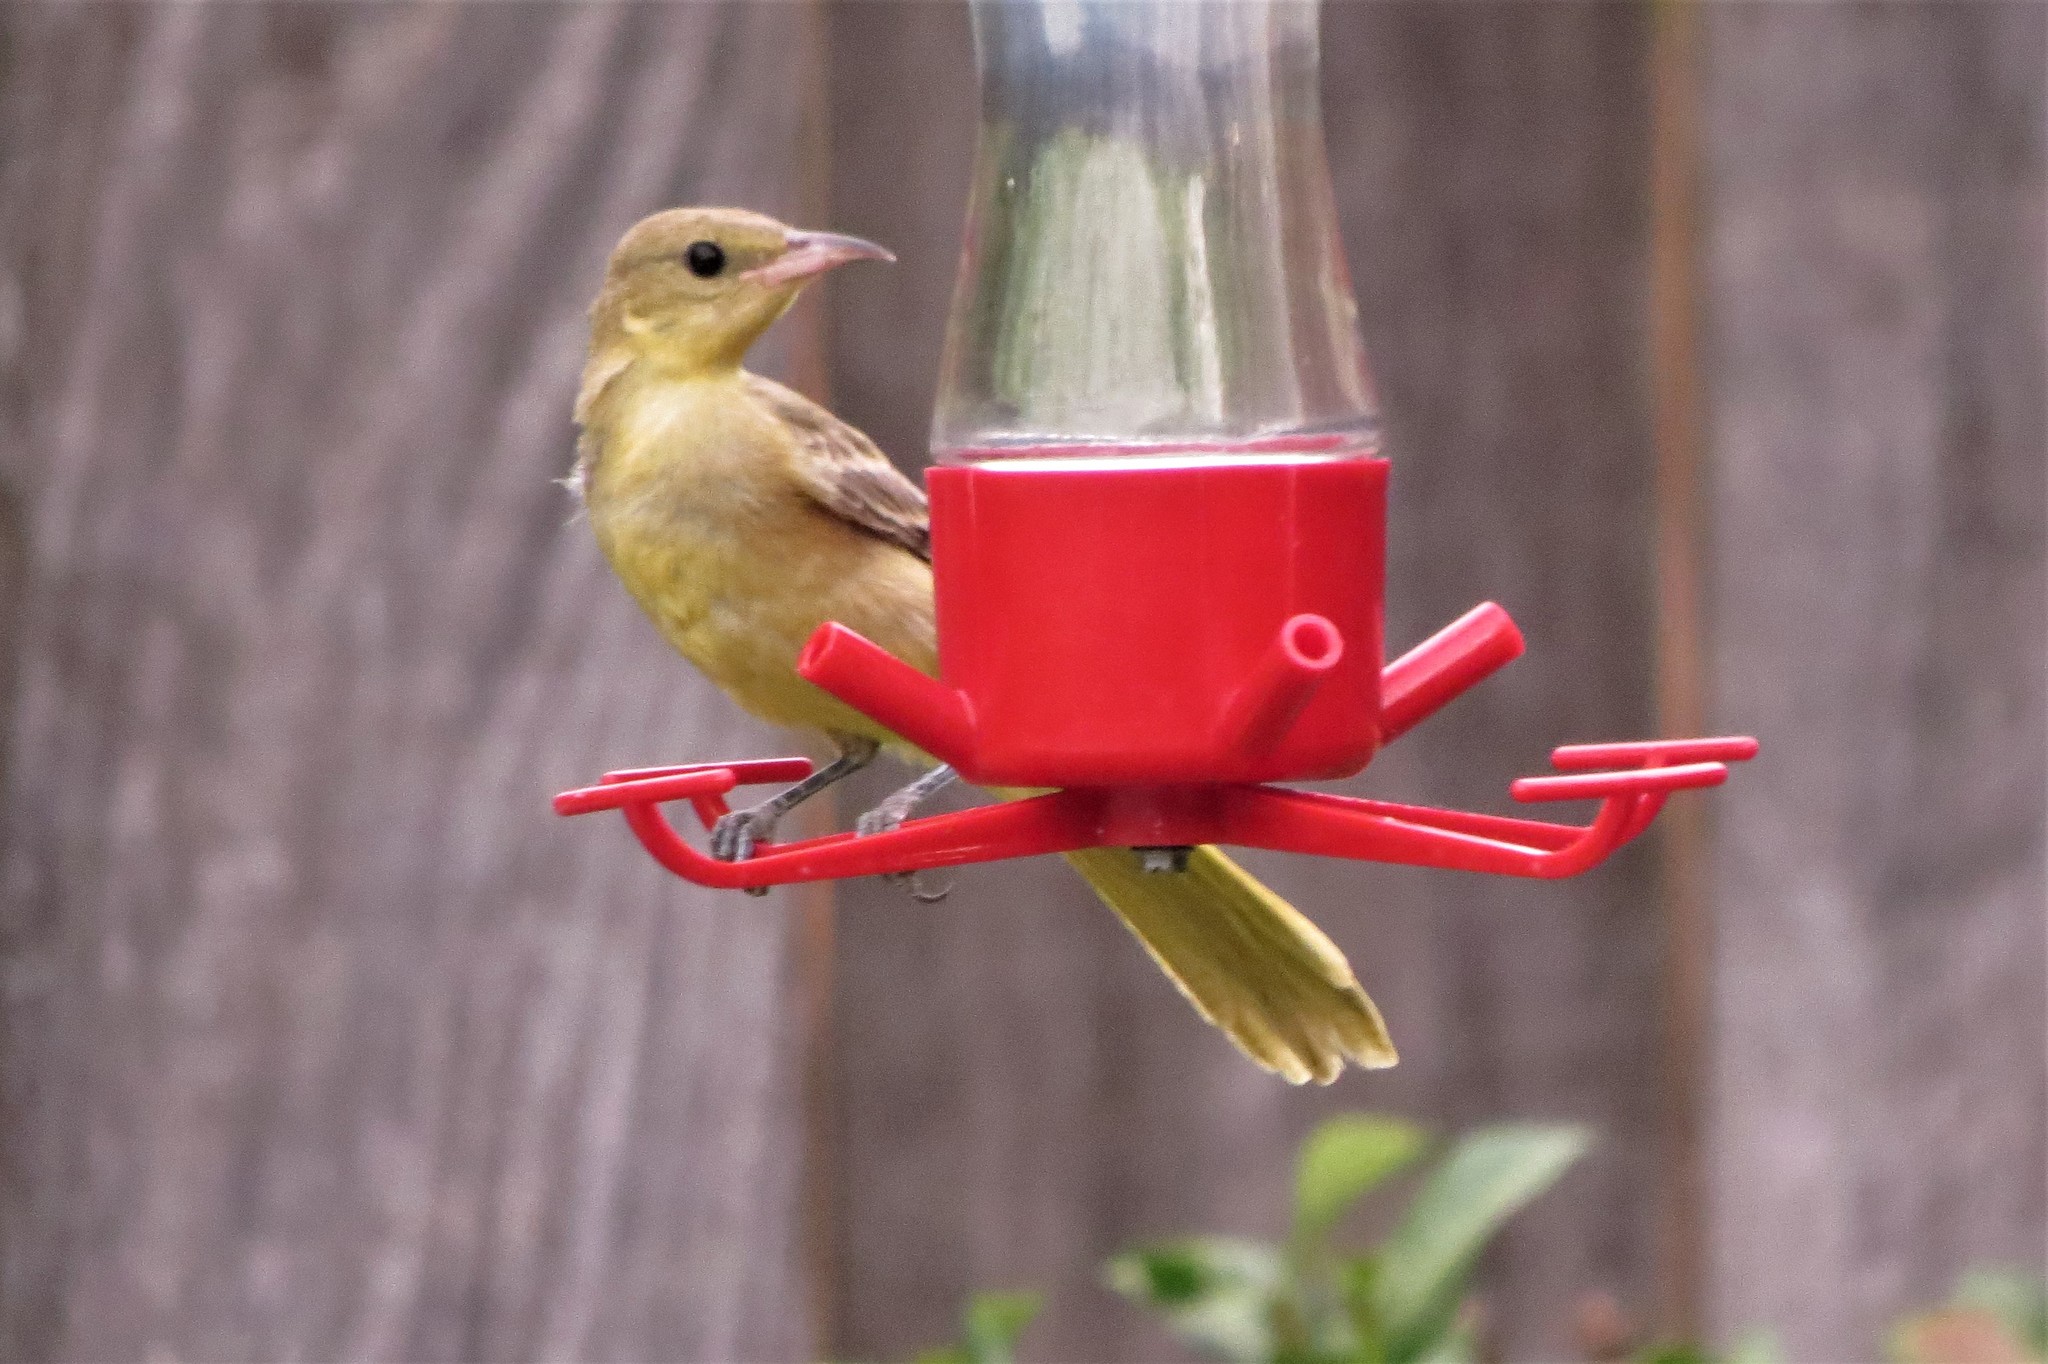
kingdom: Animalia
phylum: Chordata
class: Aves
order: Passeriformes
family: Icteridae
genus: Icterus
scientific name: Icterus cucullatus
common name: Hooded oriole
